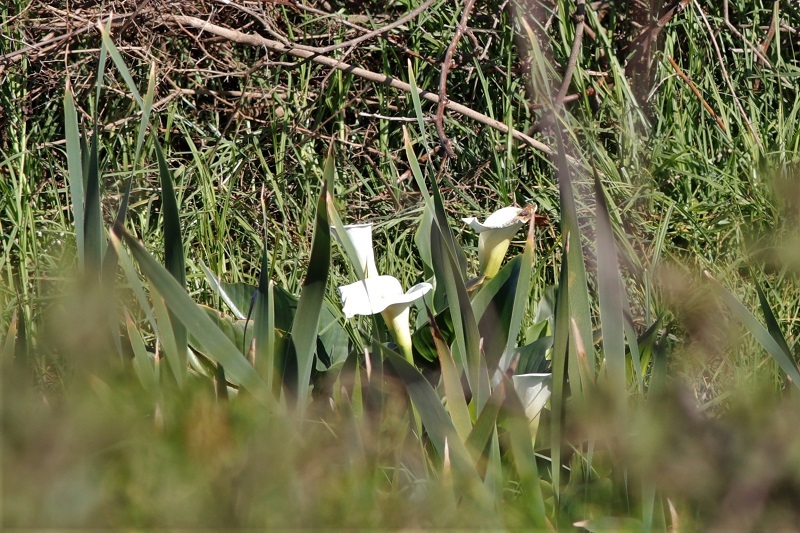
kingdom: Plantae
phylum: Tracheophyta
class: Liliopsida
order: Alismatales
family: Araceae
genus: Zantedeschia
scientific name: Zantedeschia aethiopica
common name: Altar-lily
